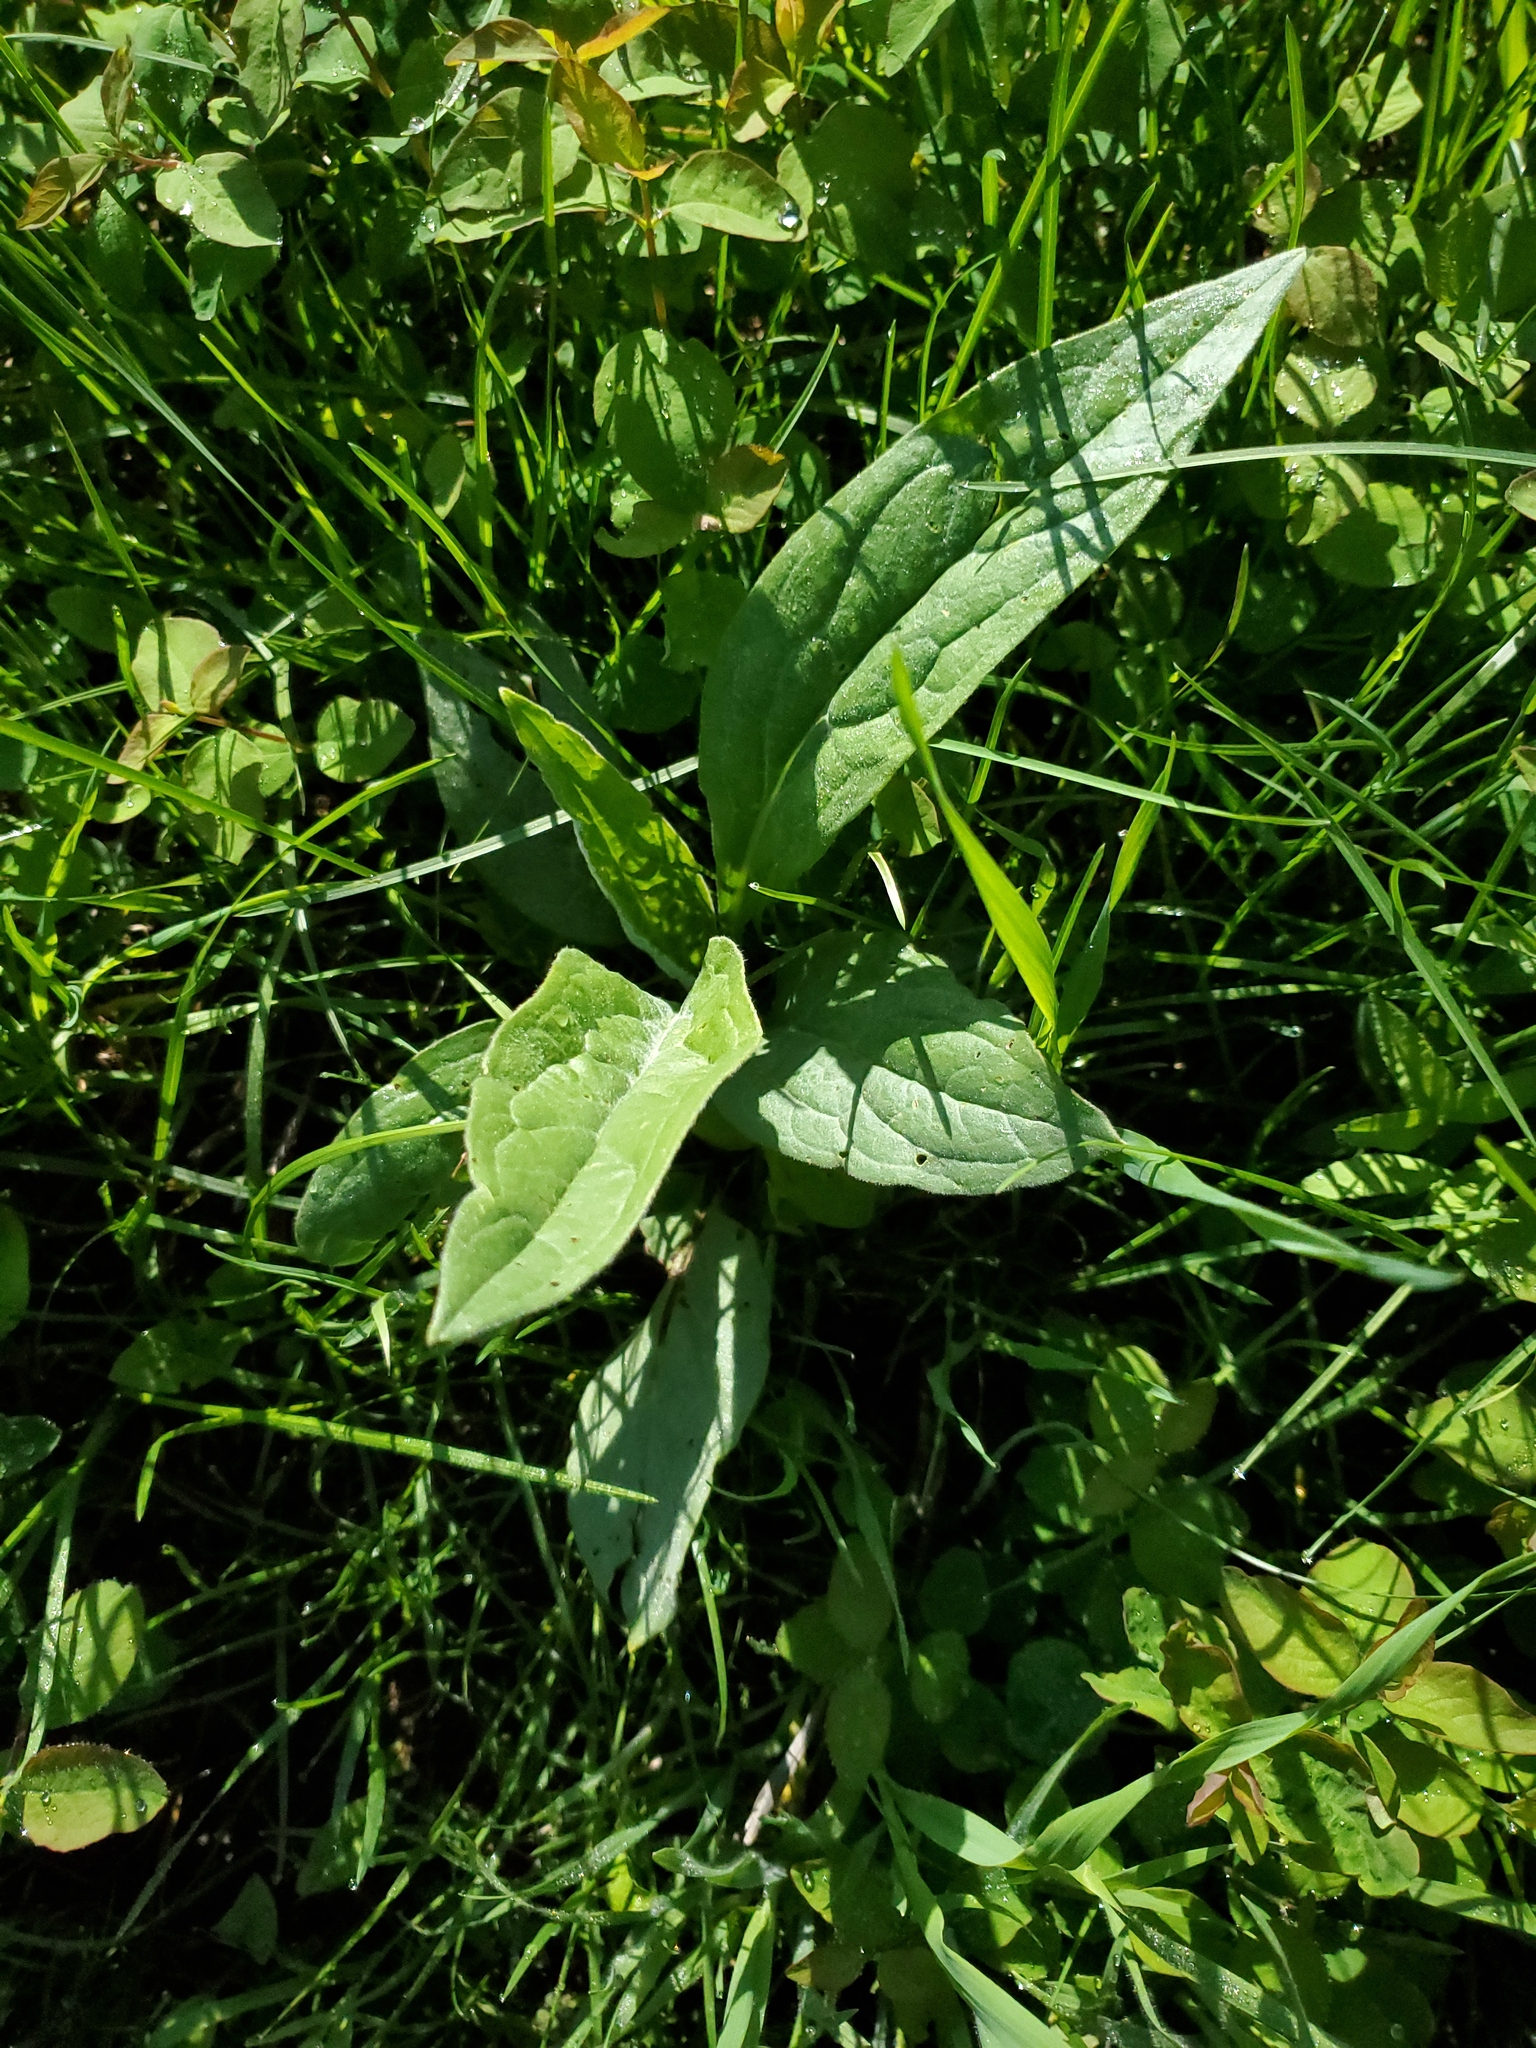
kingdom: Plantae
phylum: Tracheophyta
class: Magnoliopsida
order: Boraginales
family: Boraginaceae
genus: Cynoglossum
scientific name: Cynoglossum officinale
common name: Hound's-tongue
